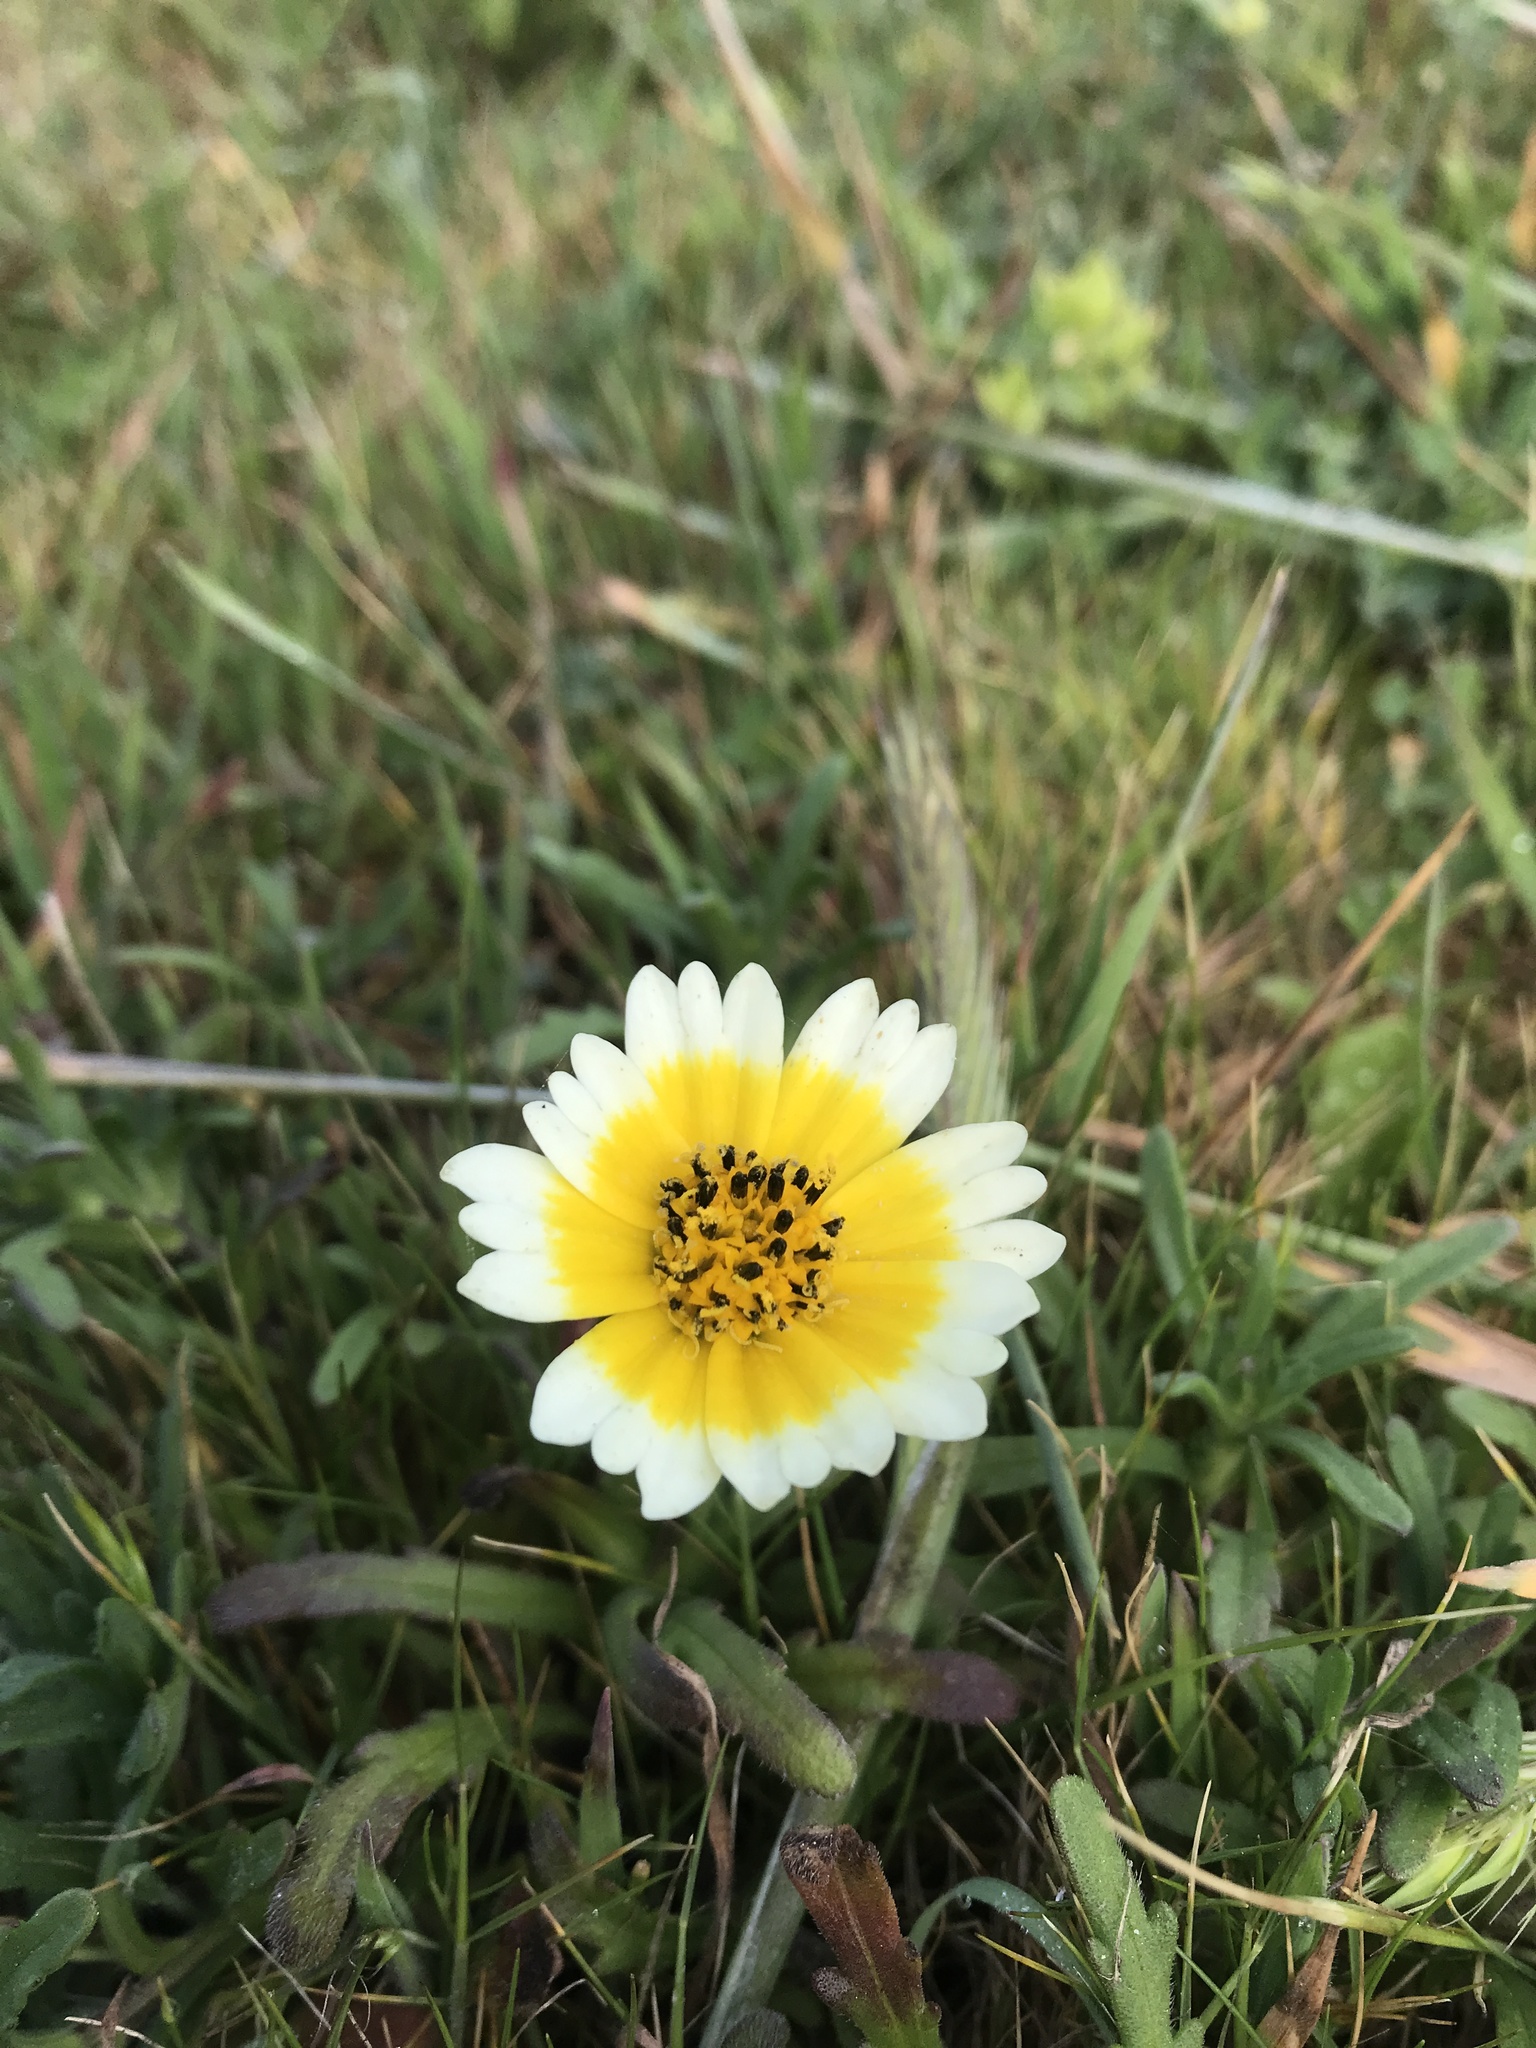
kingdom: Plantae
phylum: Tracheophyta
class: Magnoliopsida
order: Asterales
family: Asteraceae
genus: Layia
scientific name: Layia platyglossa
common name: Tidy-tips
